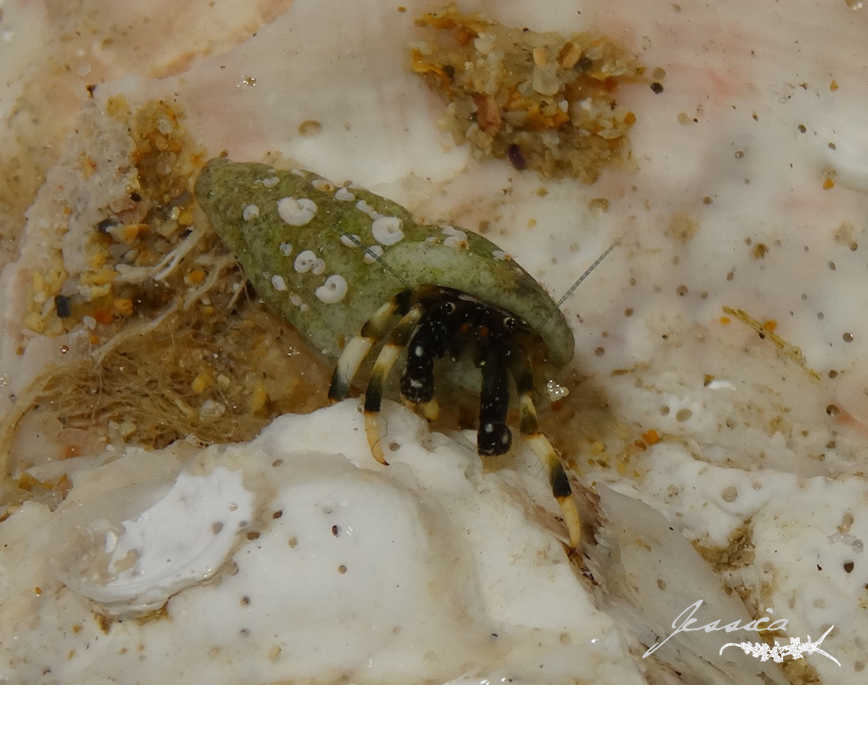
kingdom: Animalia
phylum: Arthropoda
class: Malacostraca
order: Decapoda
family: Diogenidae
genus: Clibanarius
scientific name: Clibanarius virescens
